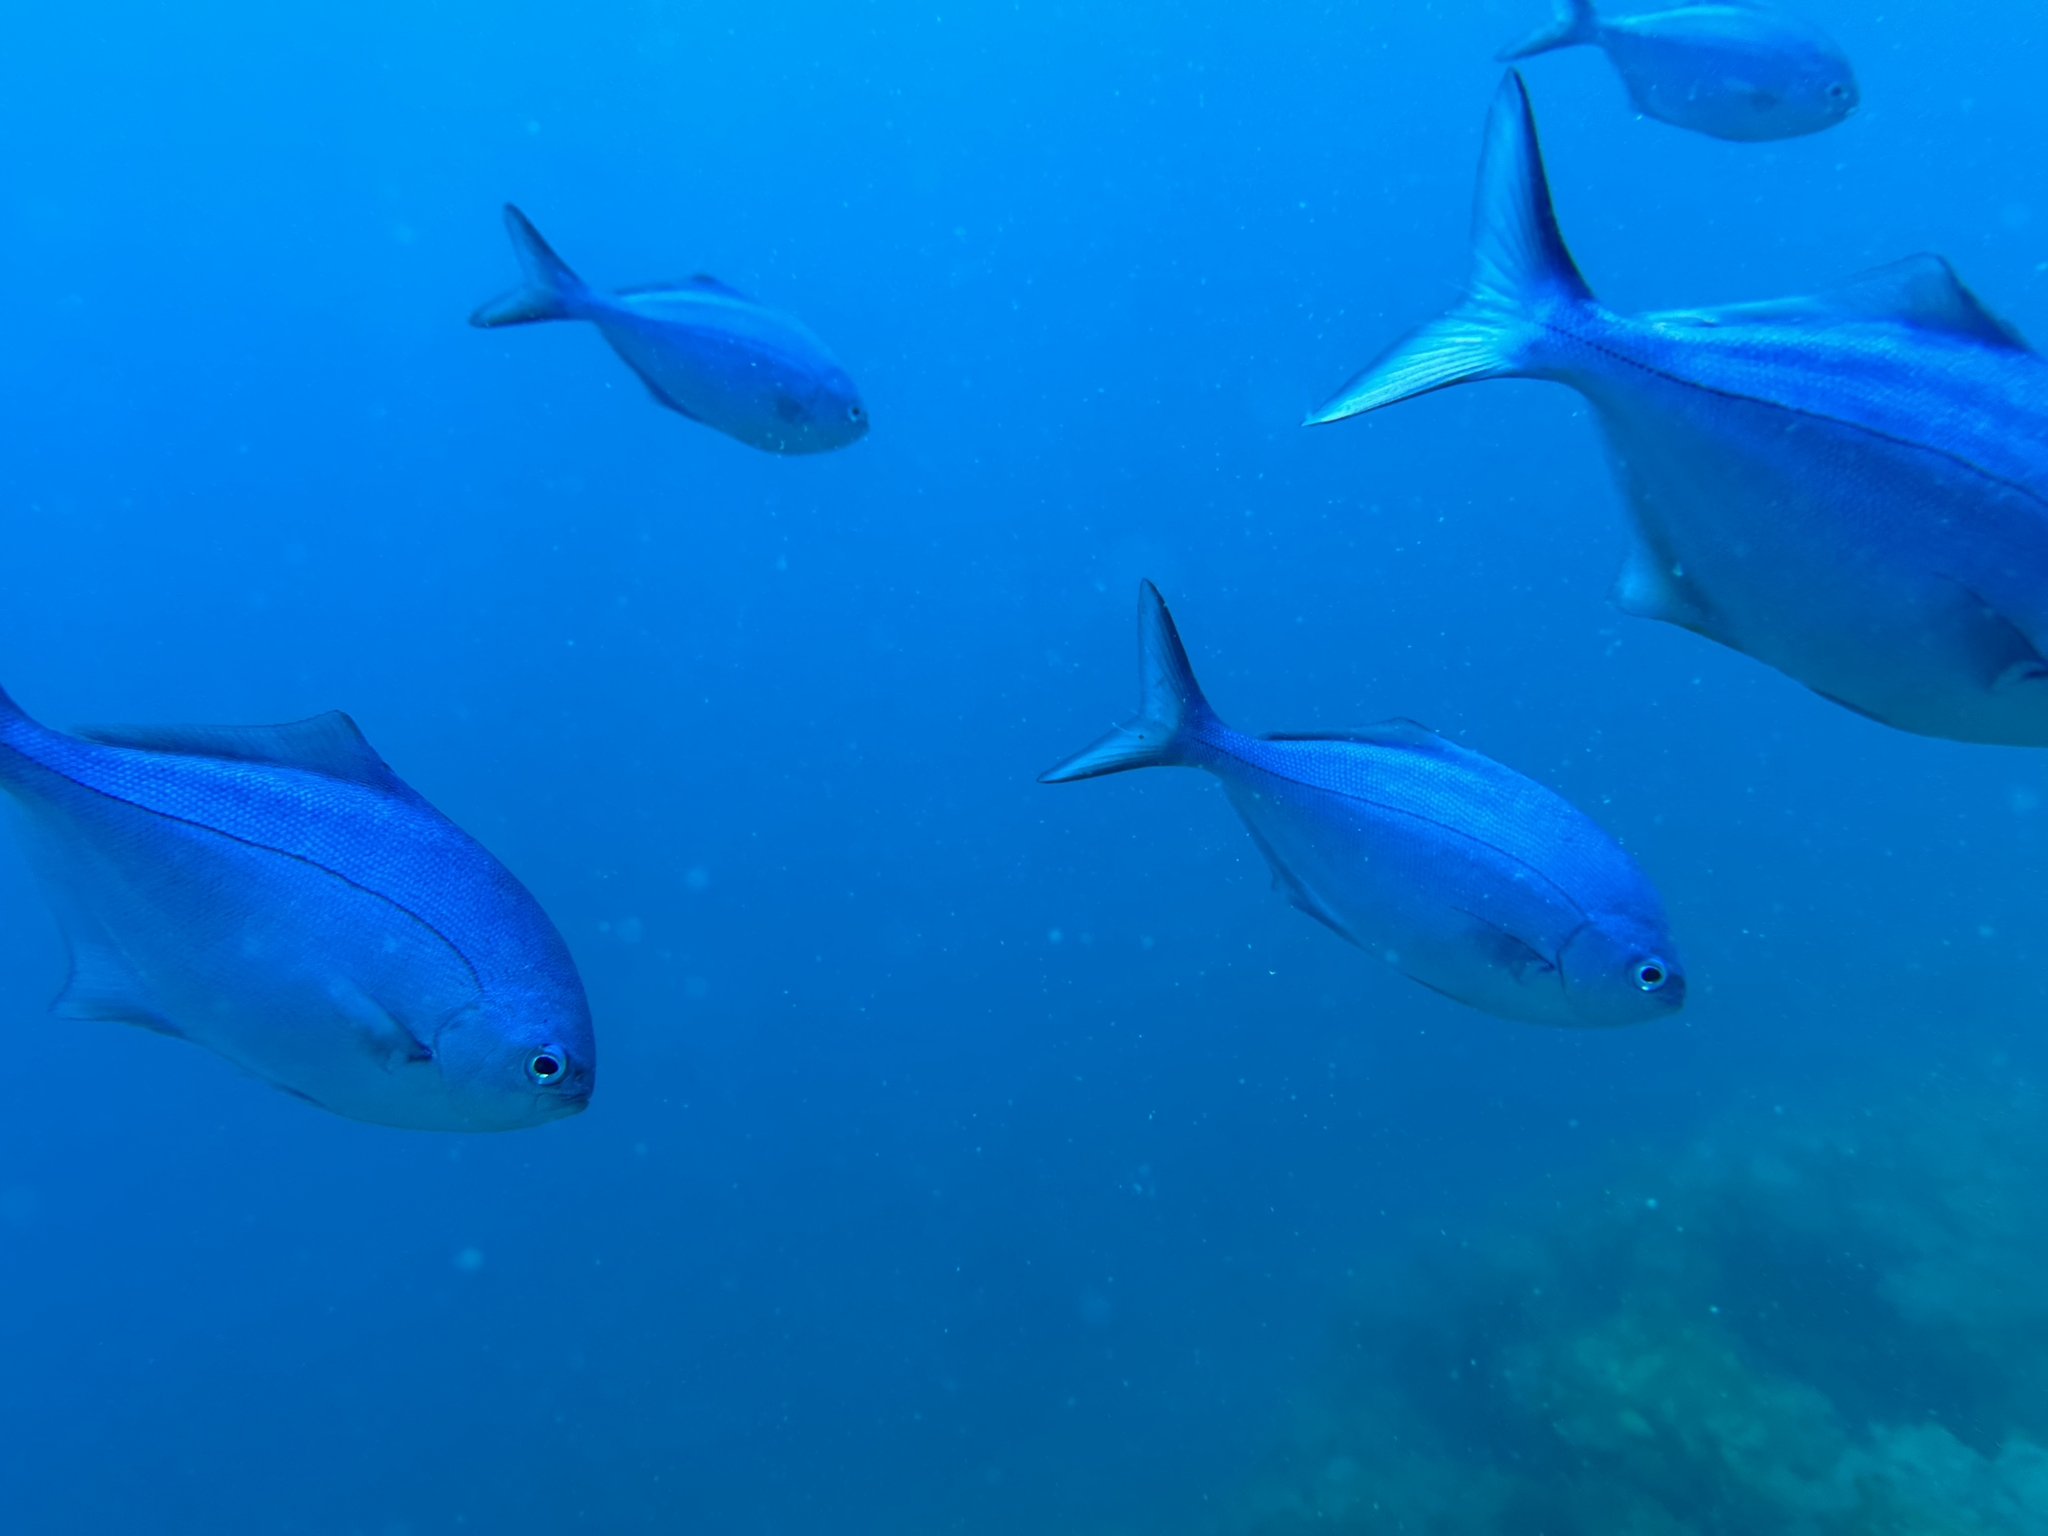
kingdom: Animalia
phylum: Chordata
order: Perciformes
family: Kyphosidae
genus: Scorpis
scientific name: Scorpis violacea
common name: Blue maomao
